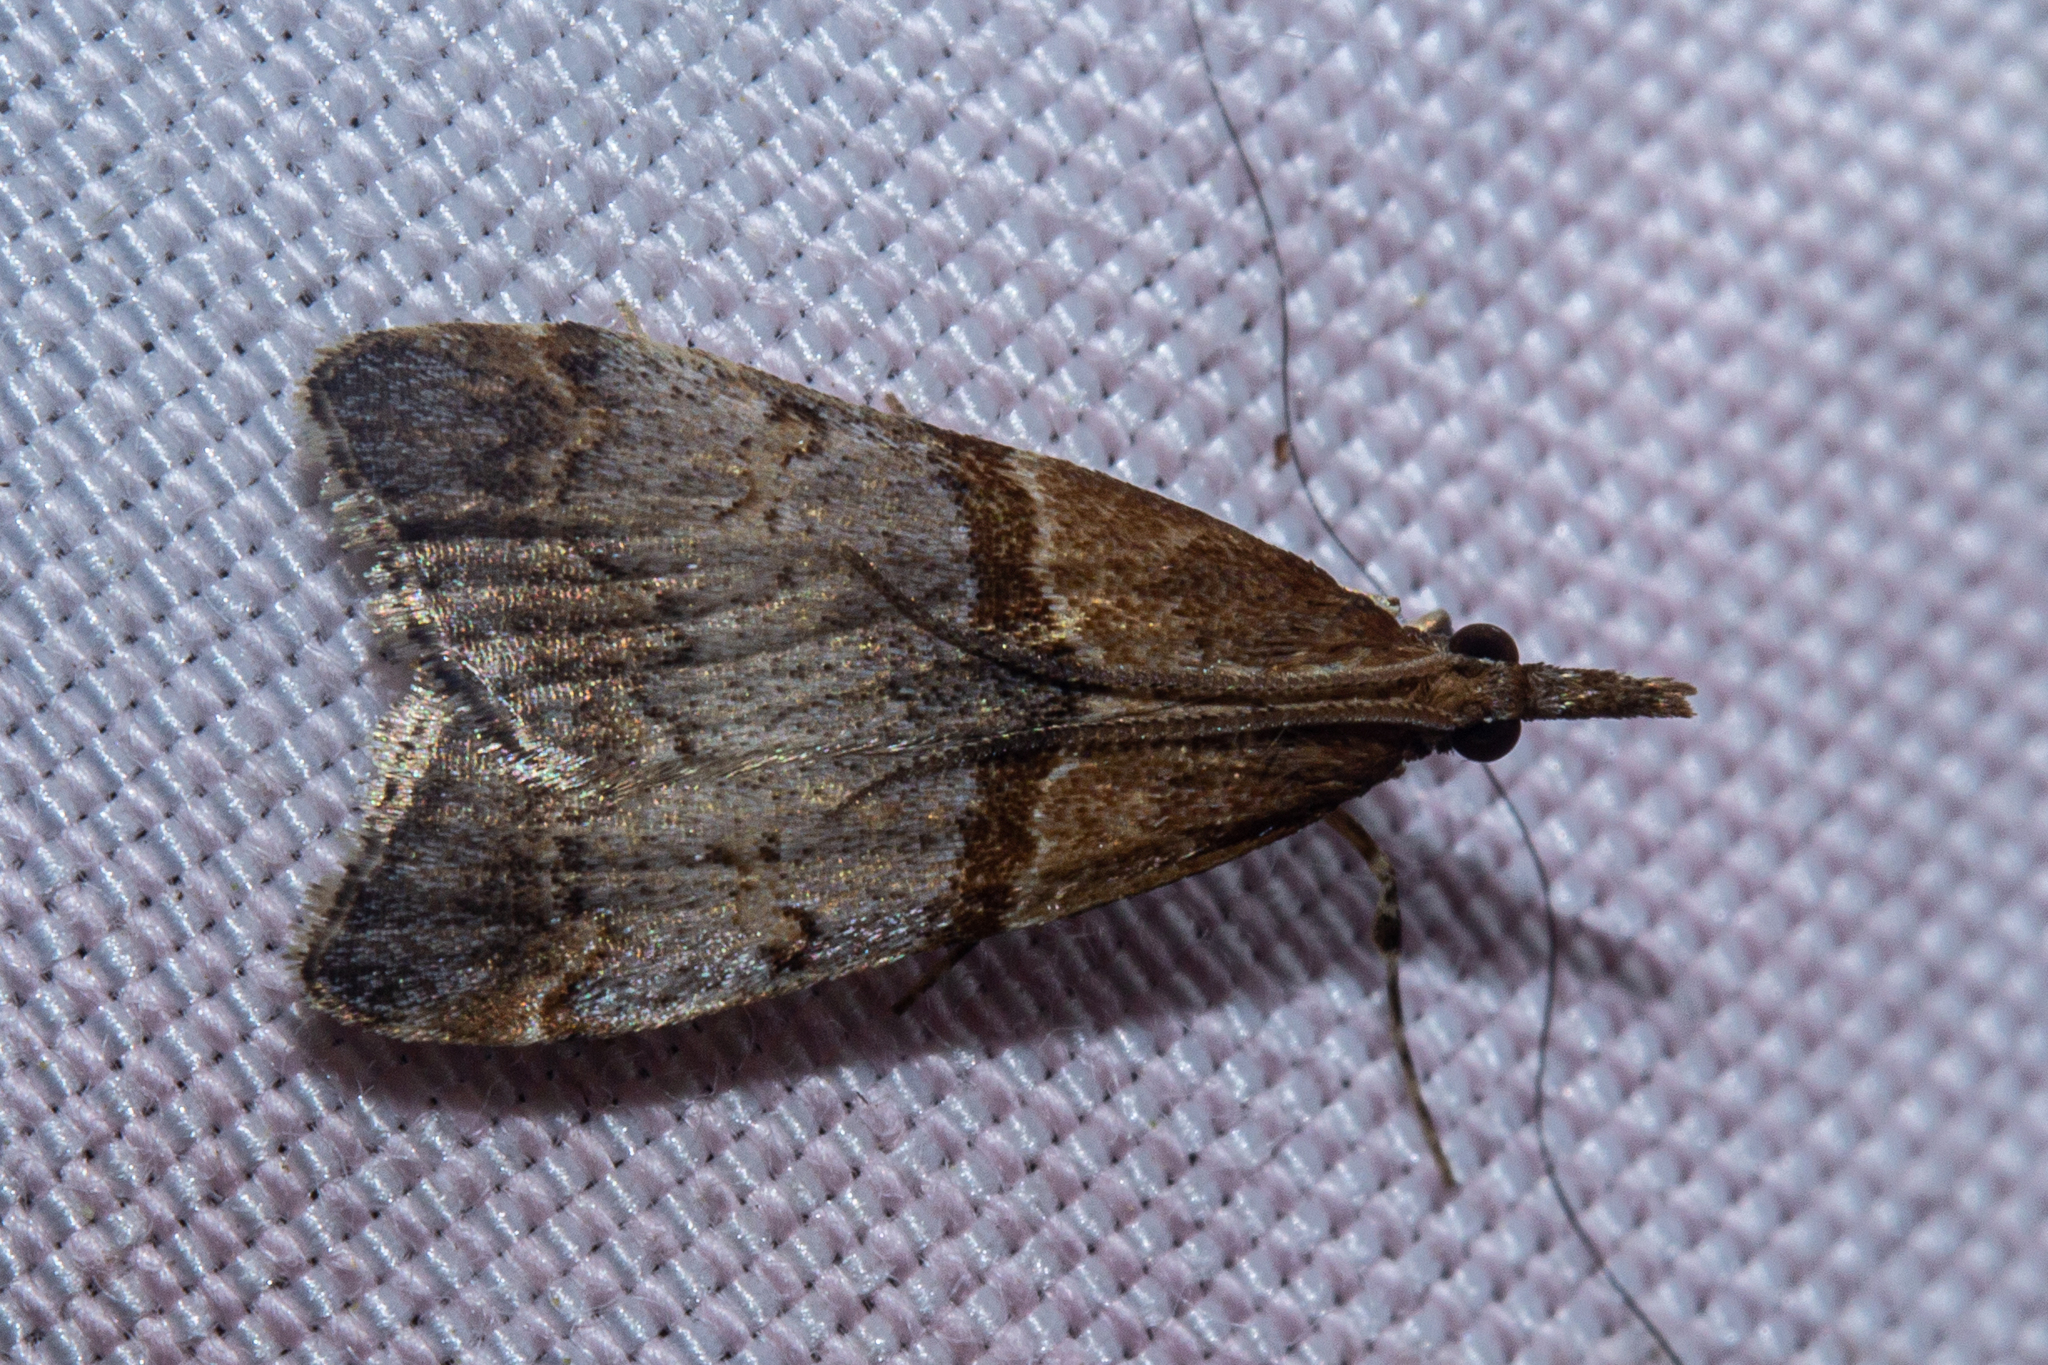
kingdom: Animalia
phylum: Arthropoda
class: Insecta
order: Lepidoptera
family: Crambidae
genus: Antiscopa
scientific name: Antiscopa epicomia
